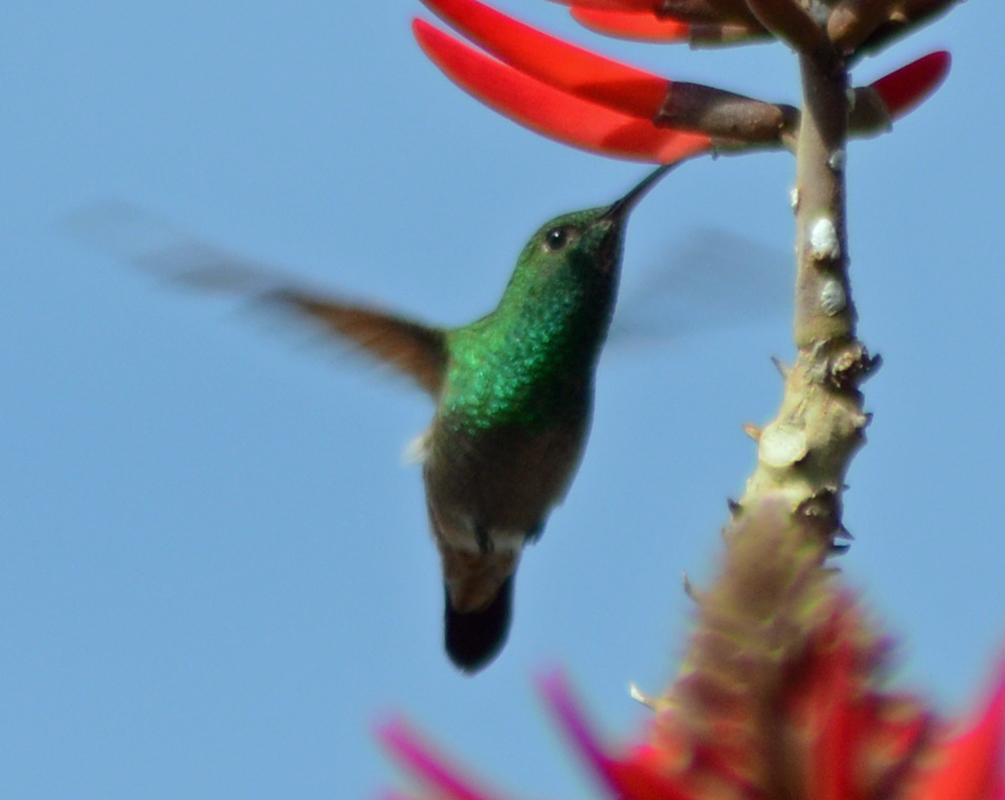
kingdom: Animalia
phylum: Chordata
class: Aves
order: Apodiformes
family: Trochilidae
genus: Saucerottia
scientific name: Saucerottia beryllina
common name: Berylline hummingbird
